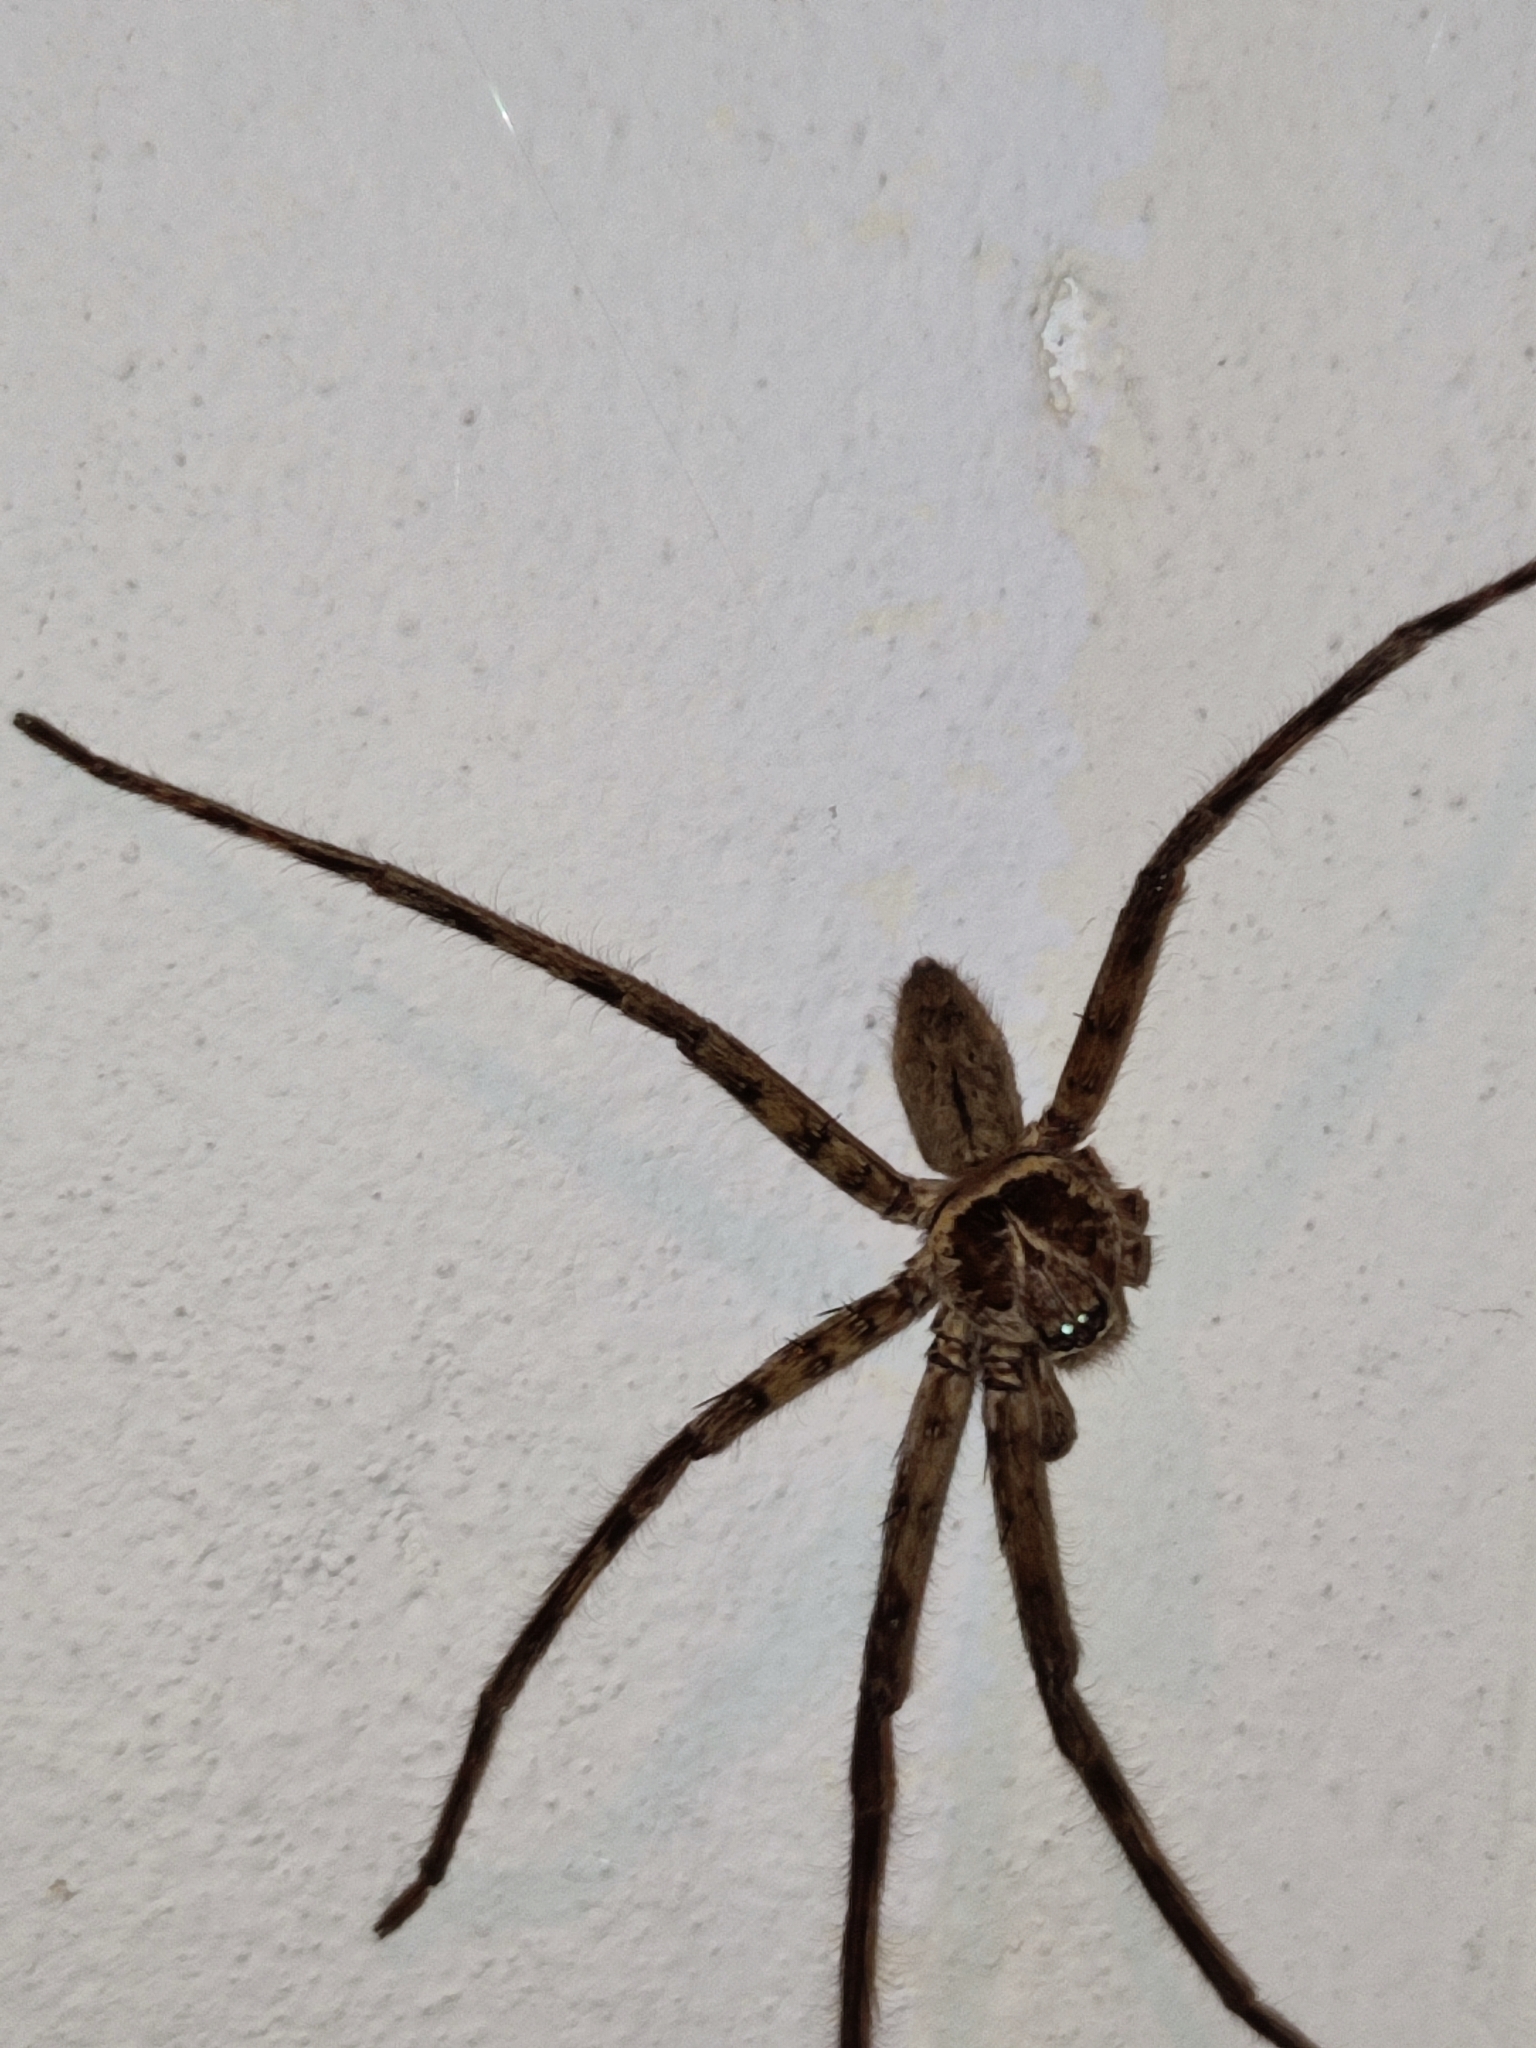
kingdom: Animalia
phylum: Arthropoda
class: Arachnida
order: Araneae
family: Sparassidae
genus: Heteropoda
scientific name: Heteropoda venatoria
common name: Huntsman spider
